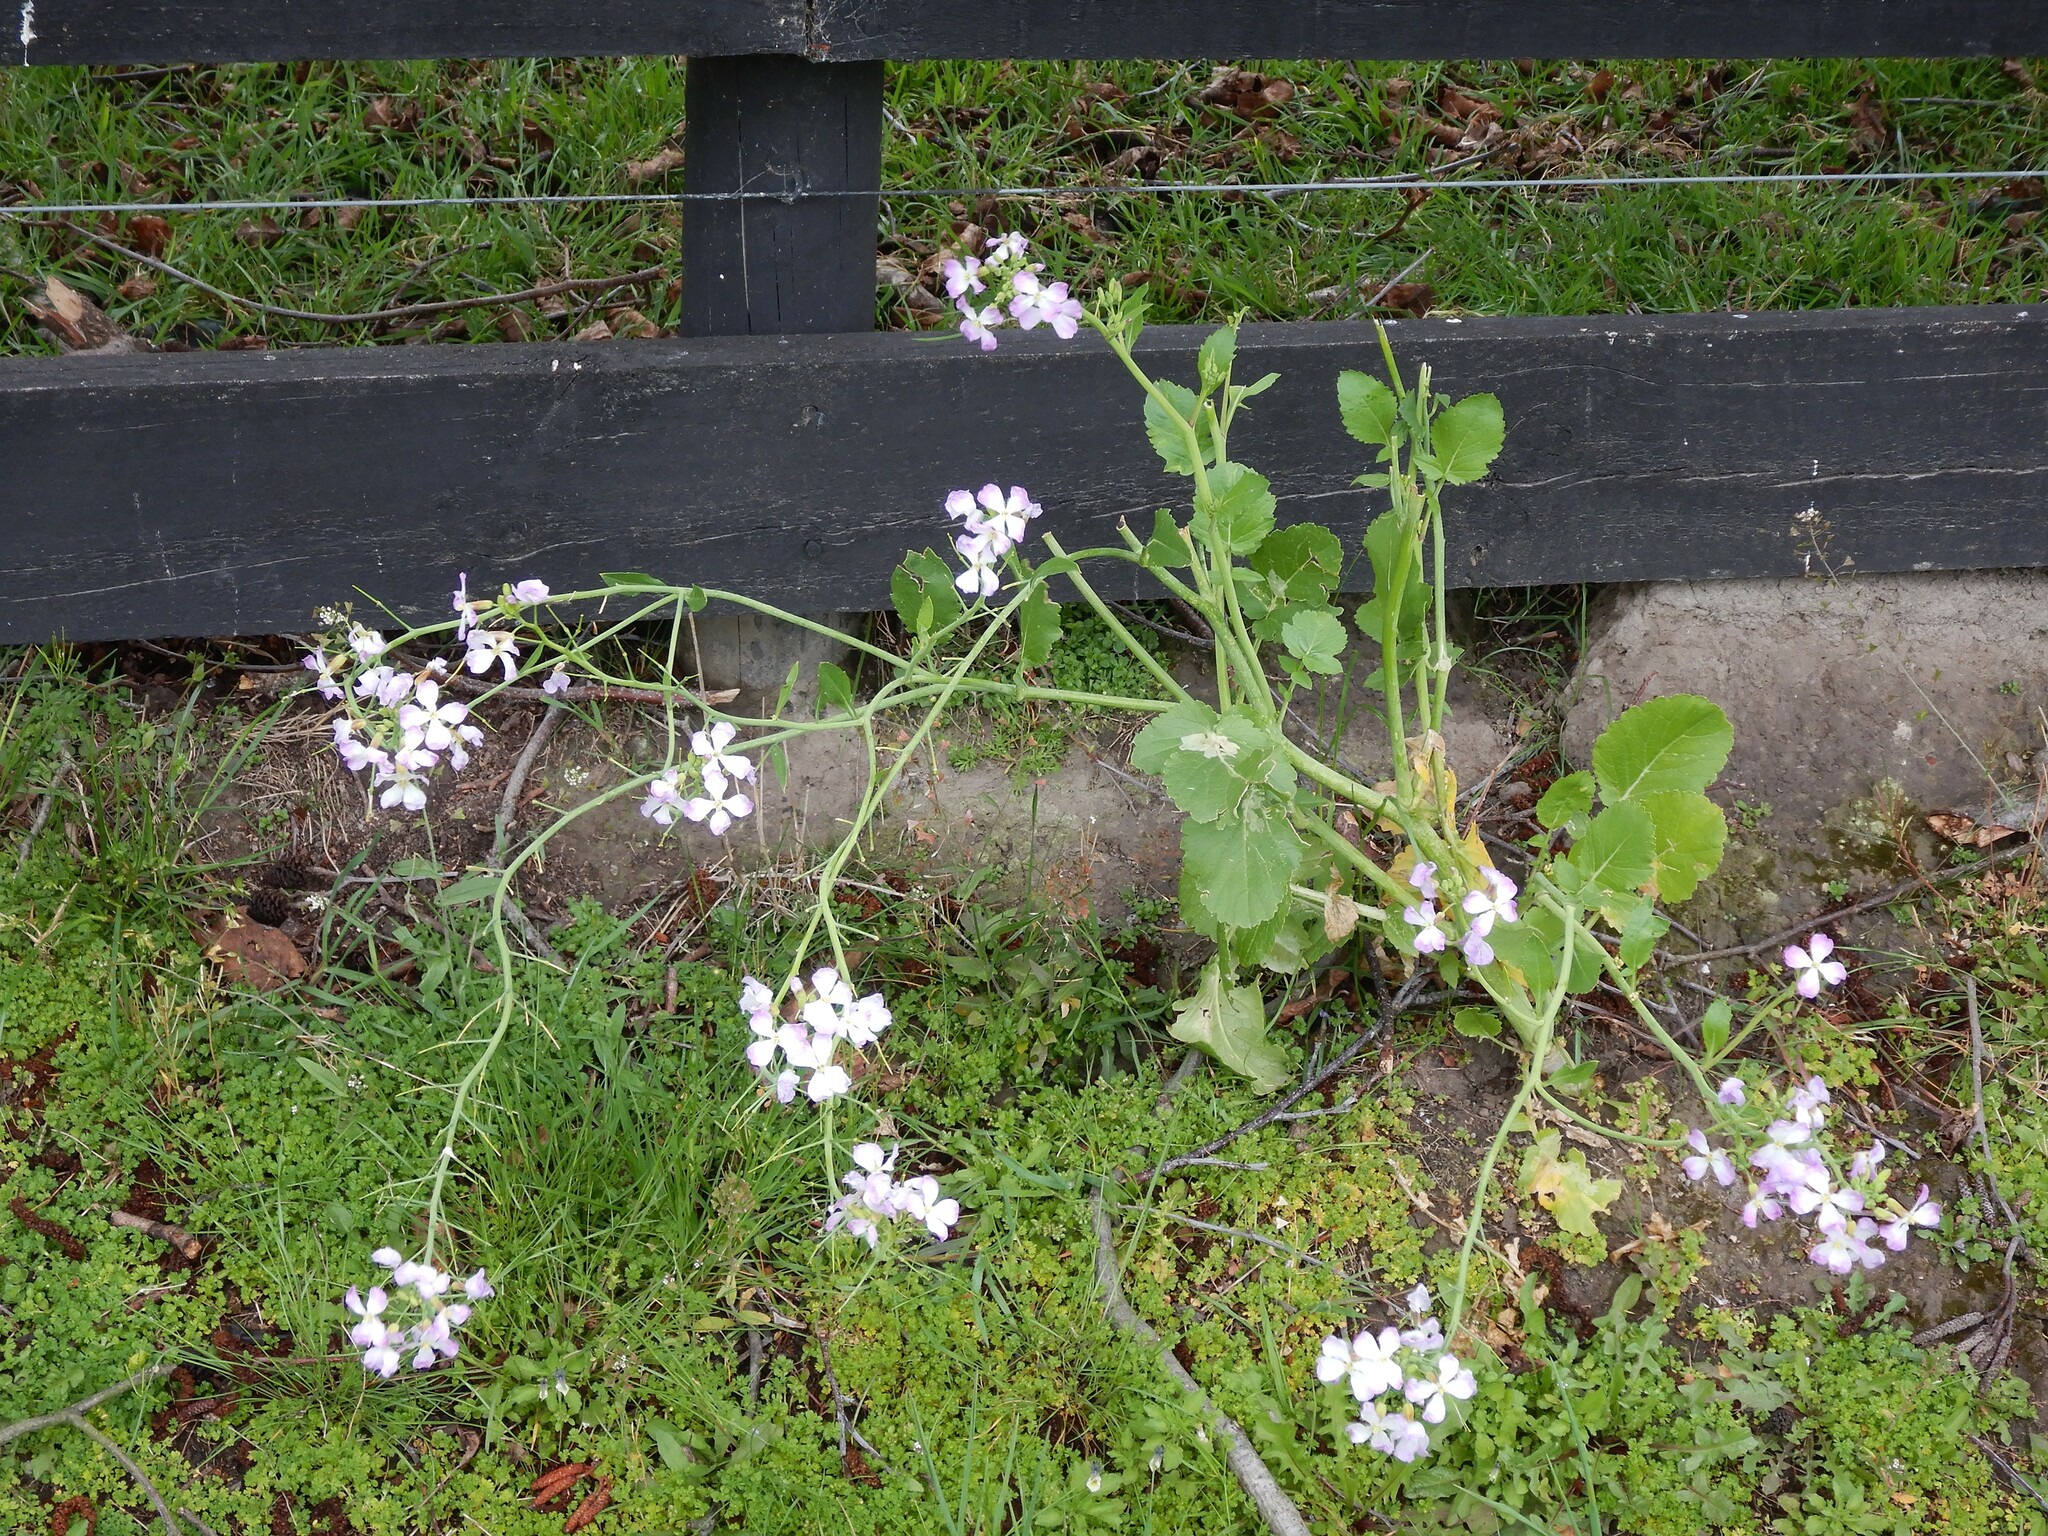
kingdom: Plantae
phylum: Tracheophyta
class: Magnoliopsida
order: Brassicales
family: Brassicaceae
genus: Raphanus
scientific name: Raphanus sativus
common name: Cultivated radish
